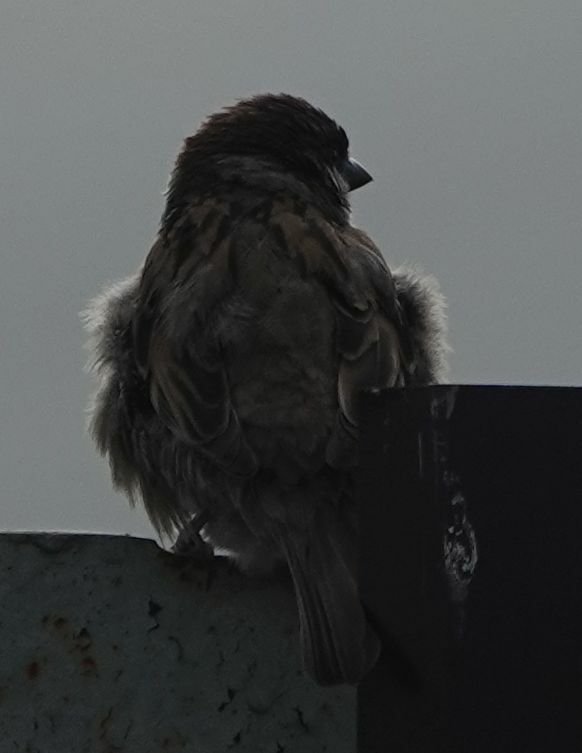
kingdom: Animalia
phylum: Chordata
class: Aves
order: Passeriformes
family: Passeridae
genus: Passer
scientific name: Passer montanus
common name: Eurasian tree sparrow
